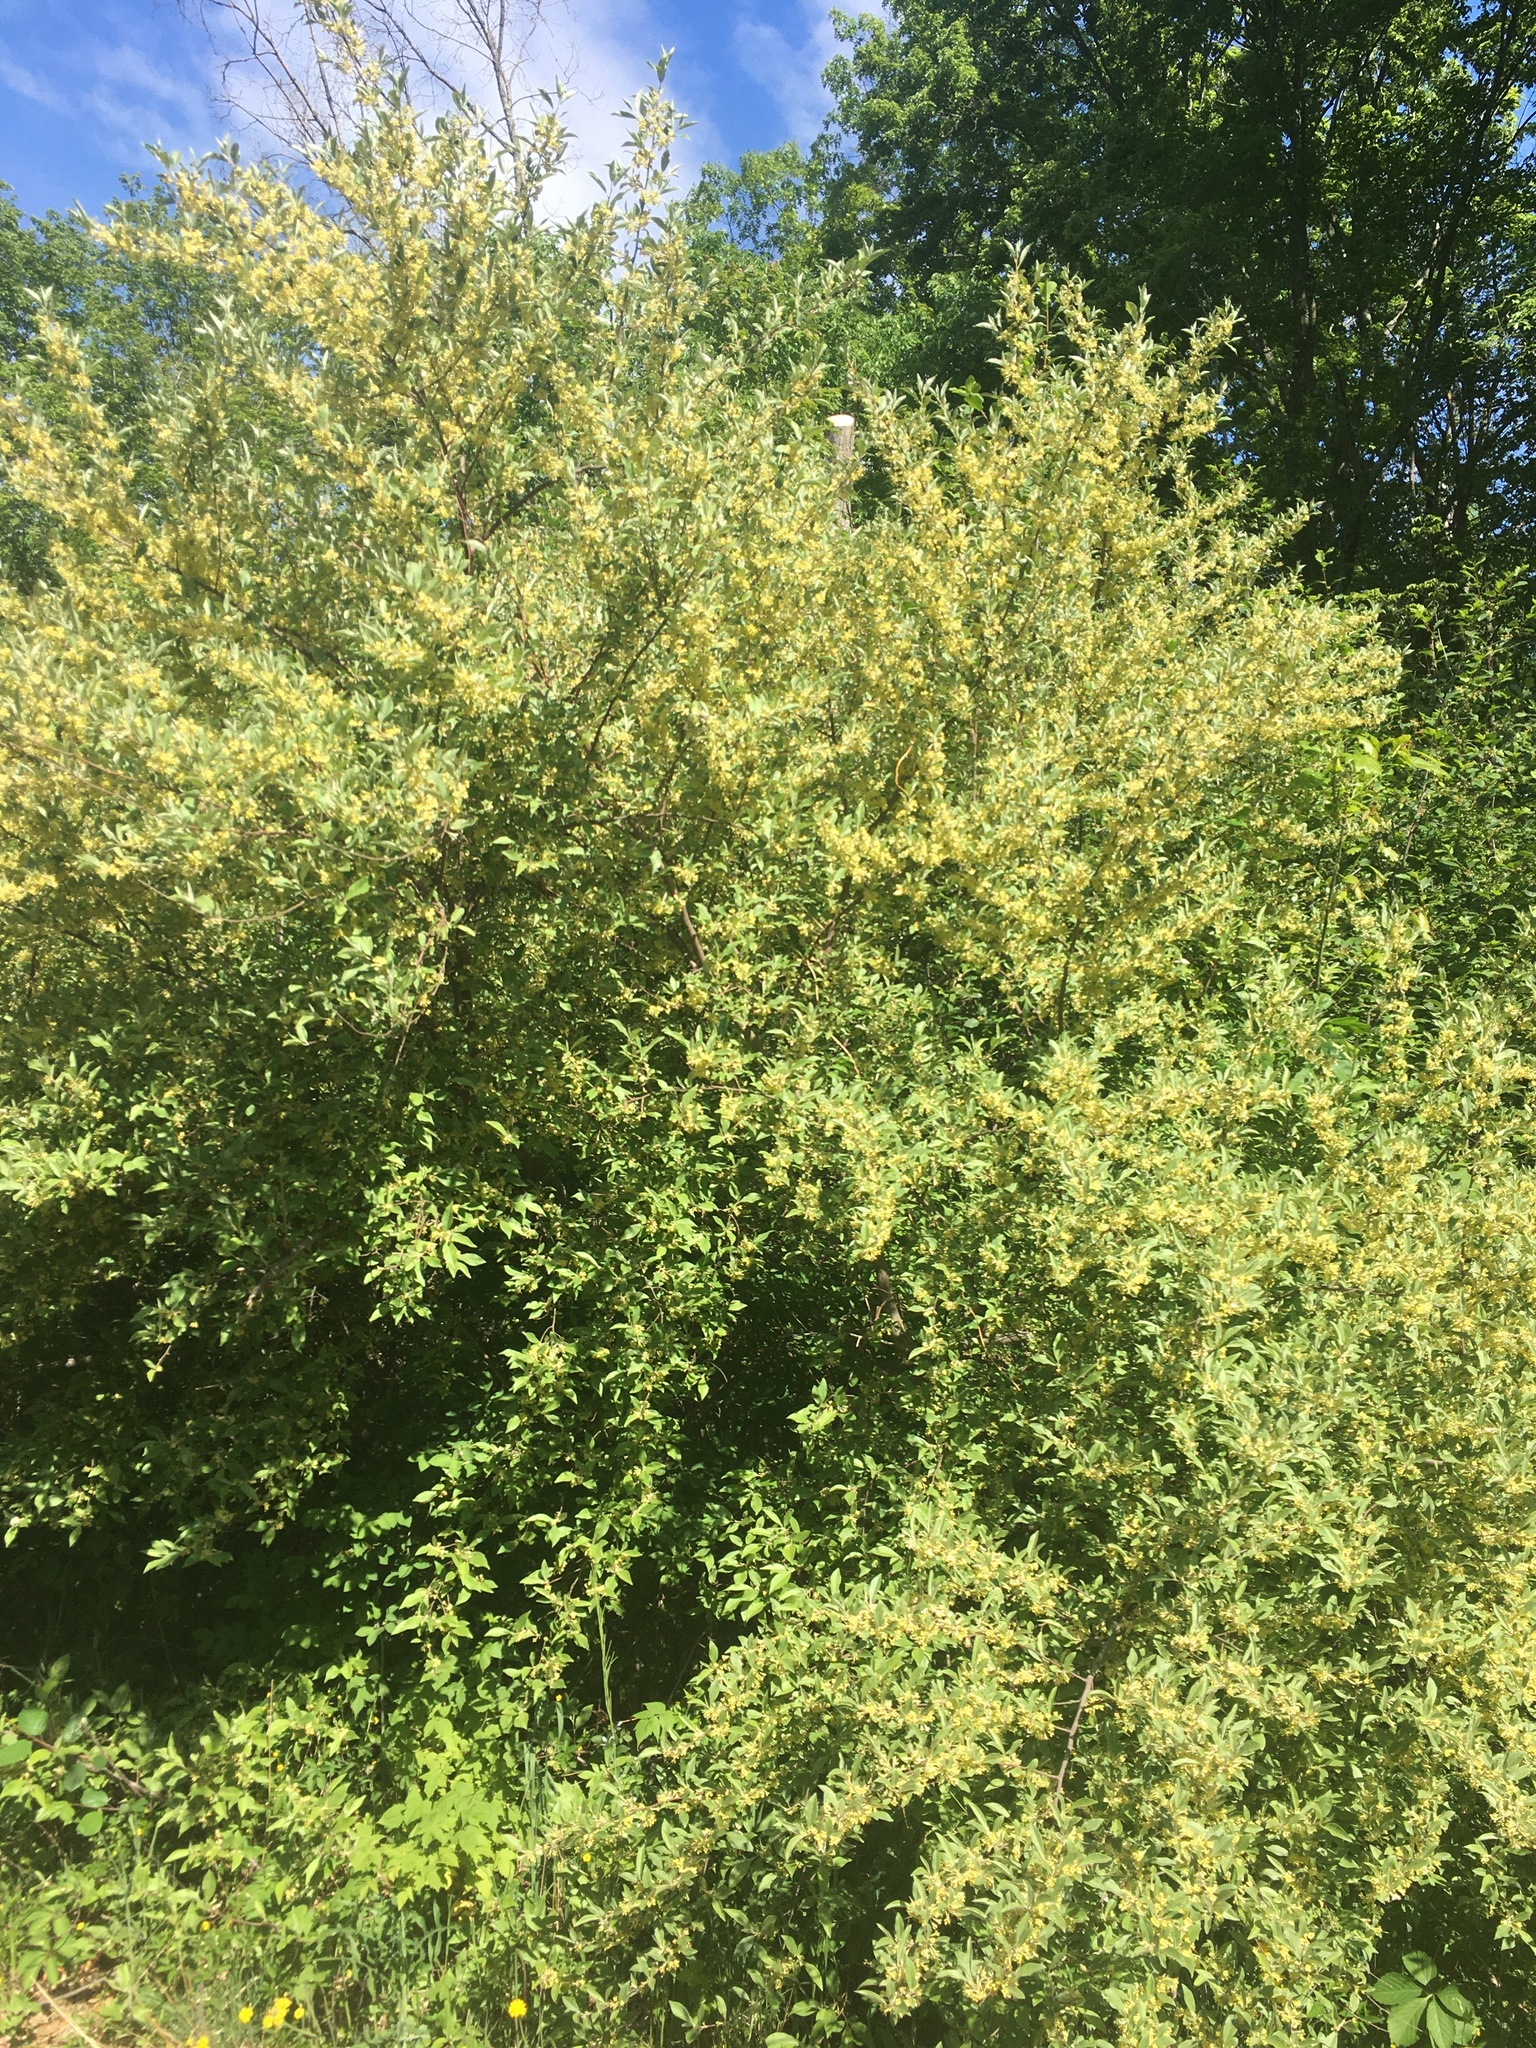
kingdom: Plantae
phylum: Tracheophyta
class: Magnoliopsida
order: Rosales
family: Elaeagnaceae
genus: Elaeagnus
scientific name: Elaeagnus umbellata
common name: Autumn olive
